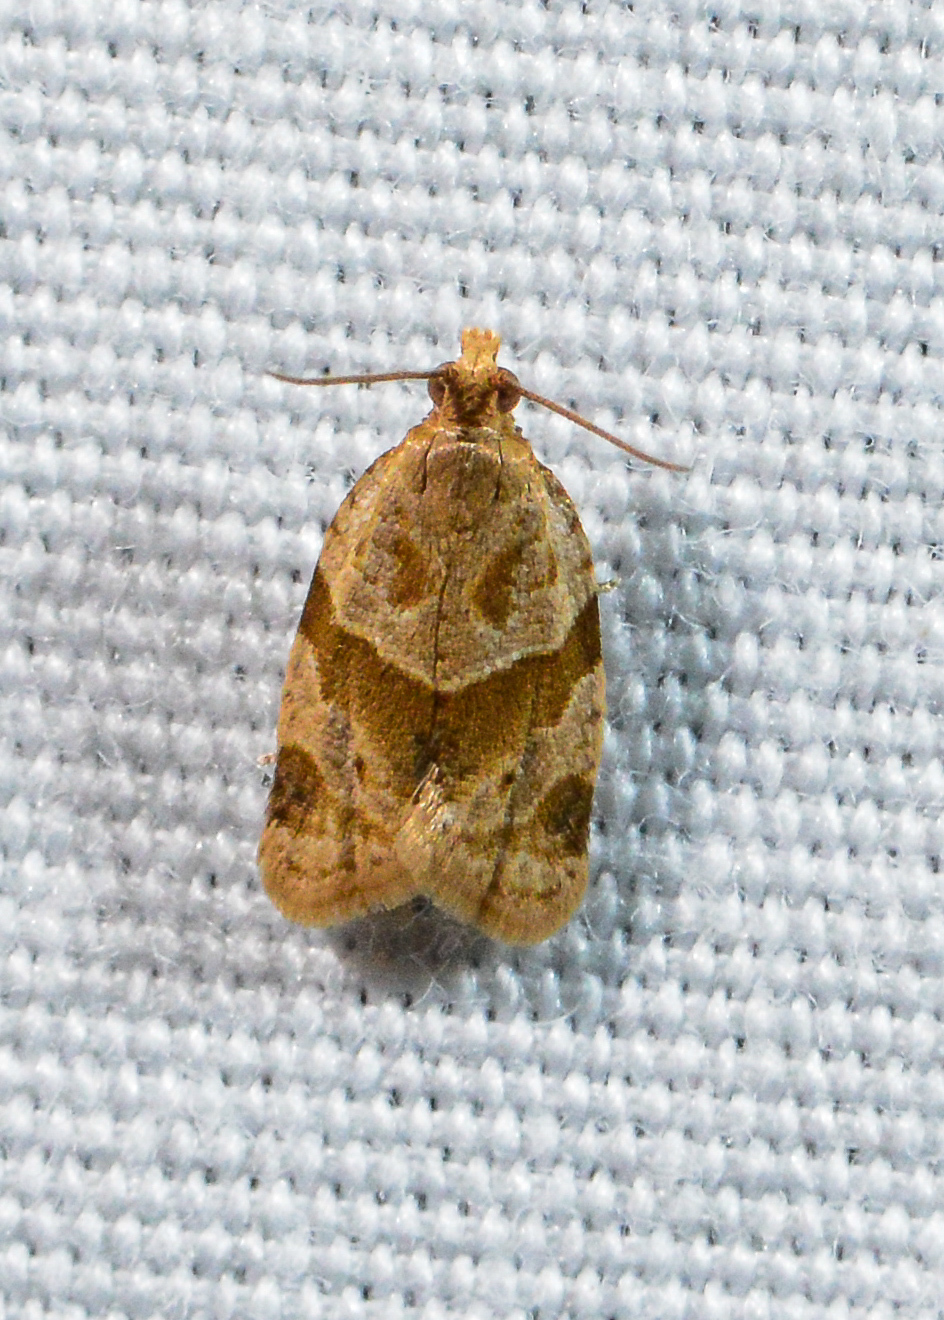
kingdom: Animalia
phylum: Arthropoda
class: Insecta
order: Lepidoptera
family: Tortricidae
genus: Clepsis
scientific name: Clepsis peritana
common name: Garden tortrix
